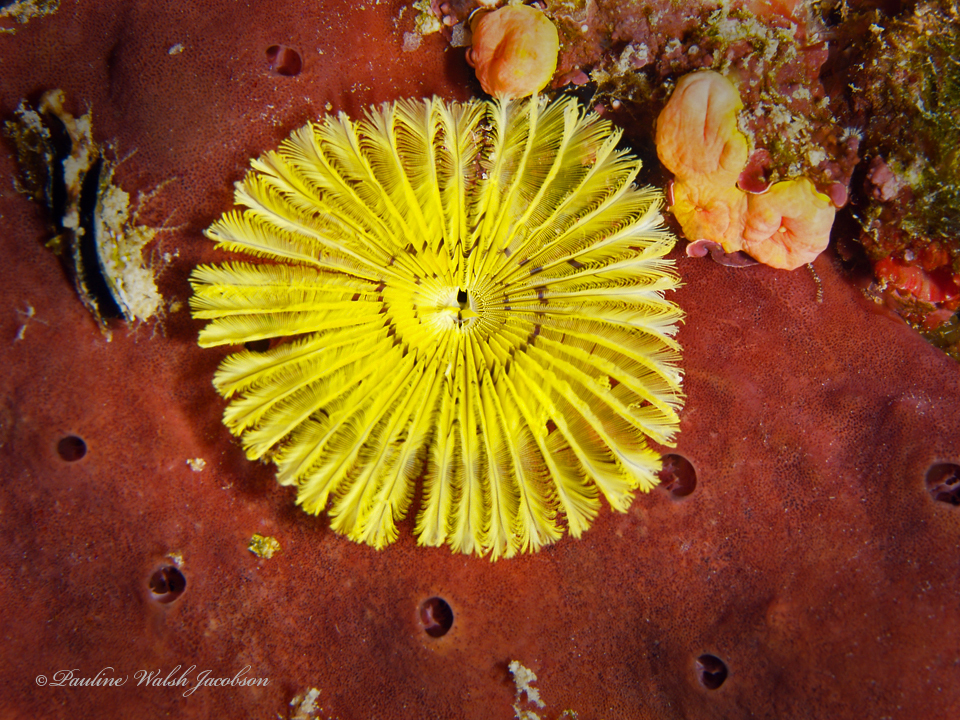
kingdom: Animalia
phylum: Annelida
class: Polychaeta
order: Sabellida
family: Sabellidae
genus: Notaulax
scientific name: Notaulax occidentalis
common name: Yellow fanworm
